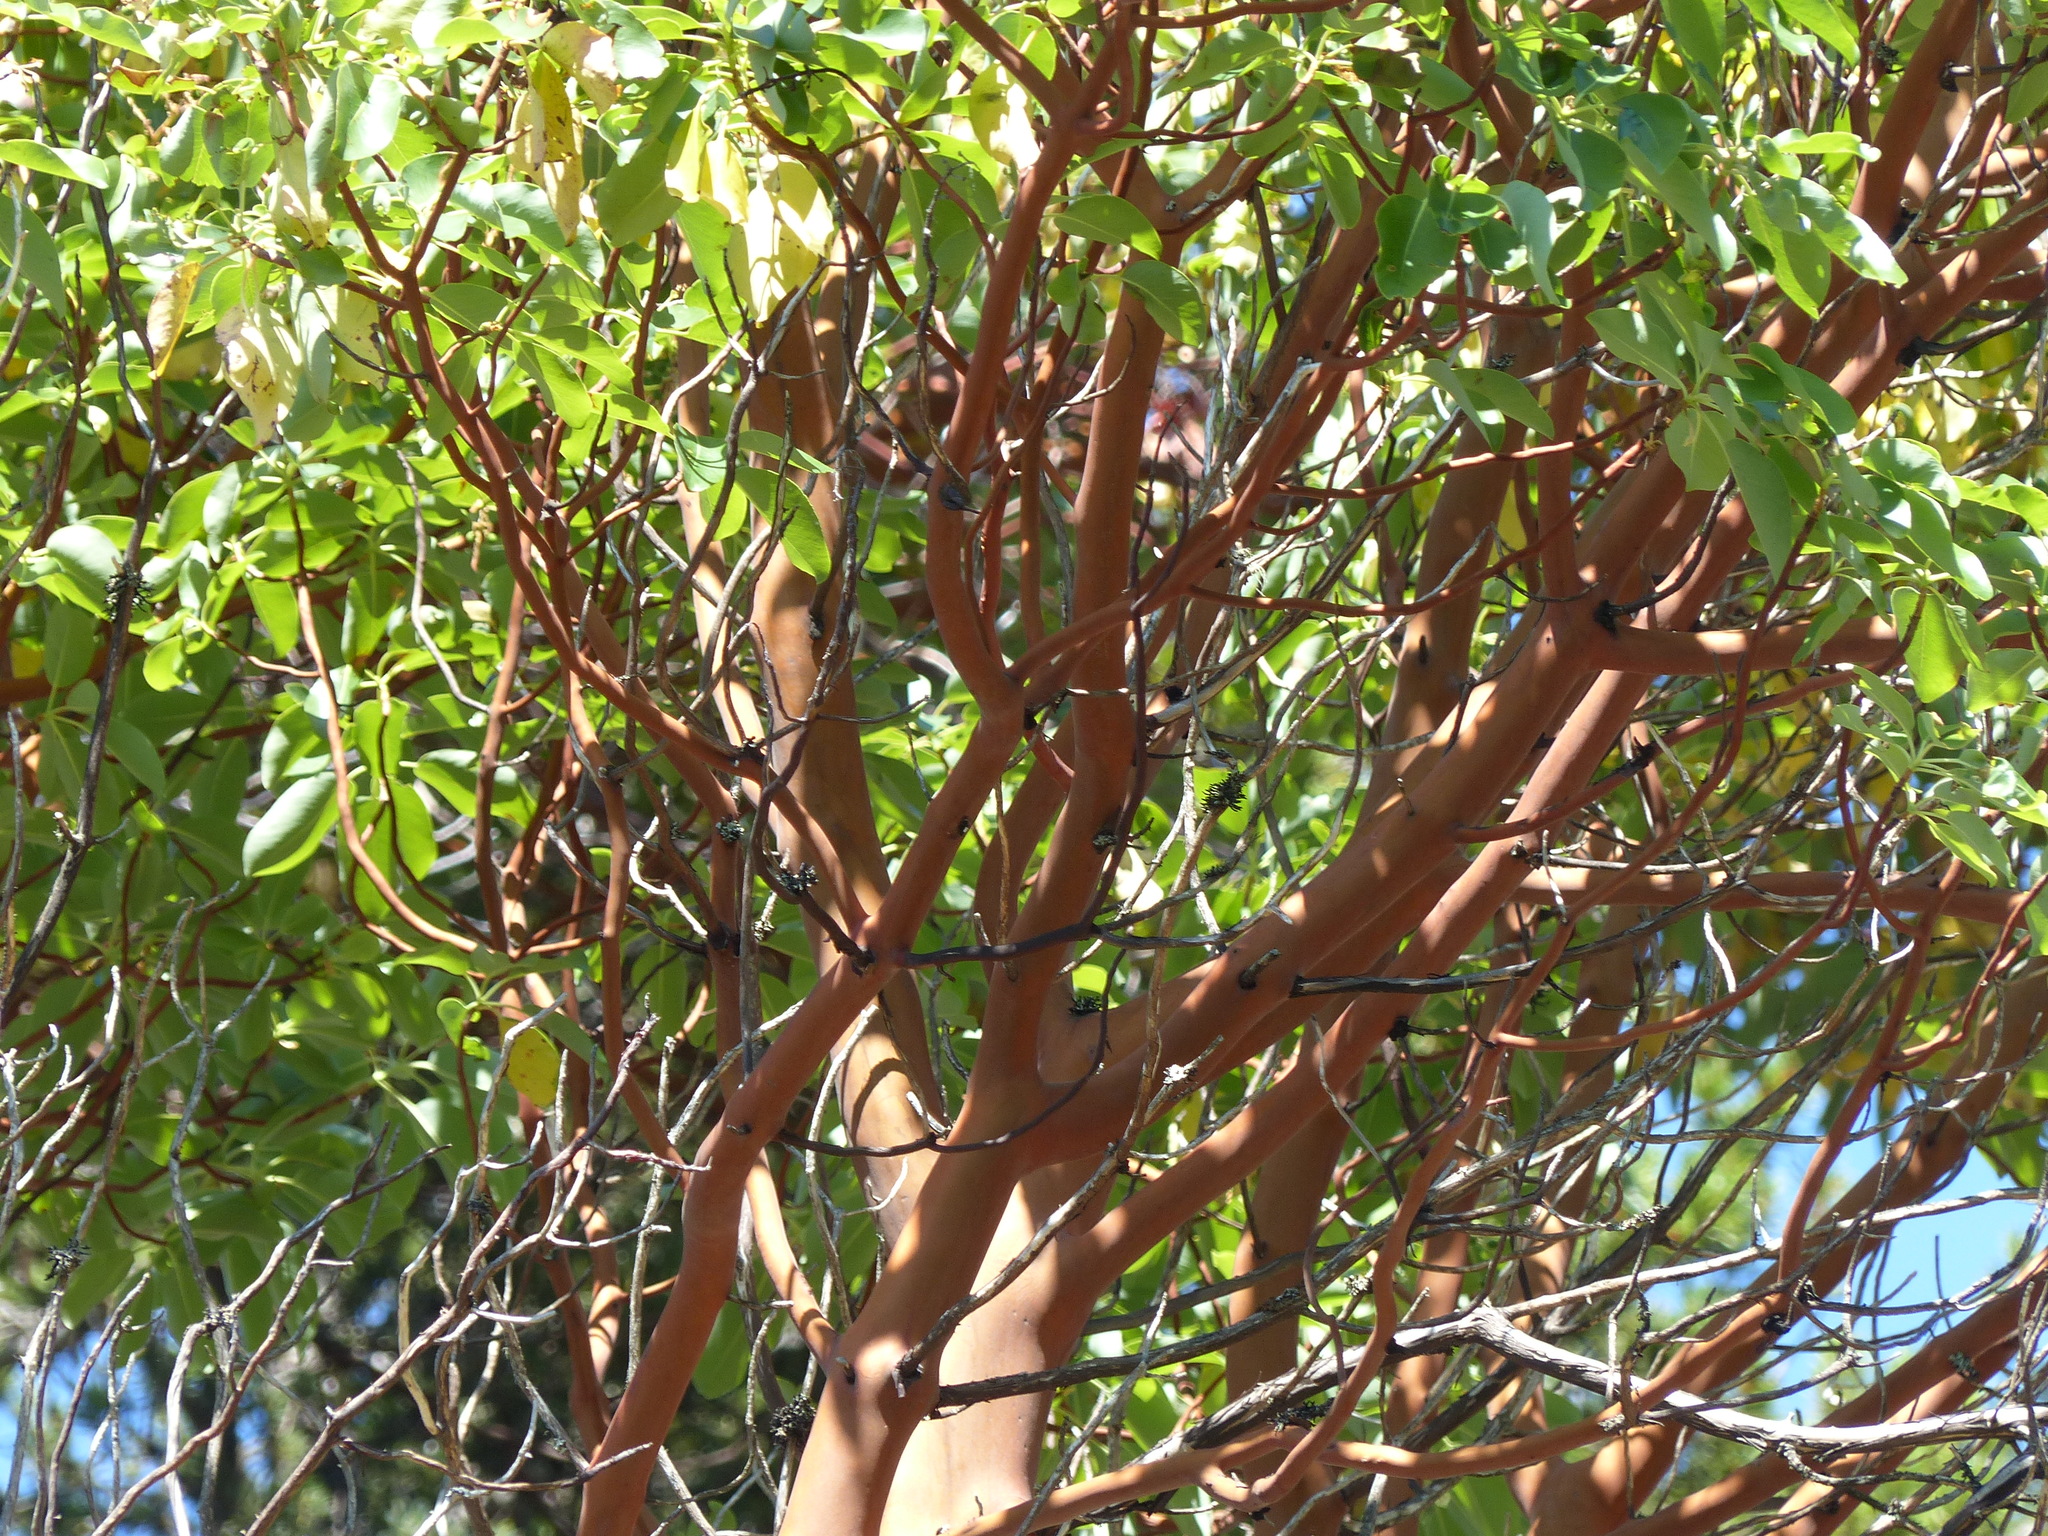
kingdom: Plantae
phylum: Tracheophyta
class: Magnoliopsida
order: Ericales
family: Ericaceae
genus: Arbutus
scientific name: Arbutus menziesii
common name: Pacific madrone
